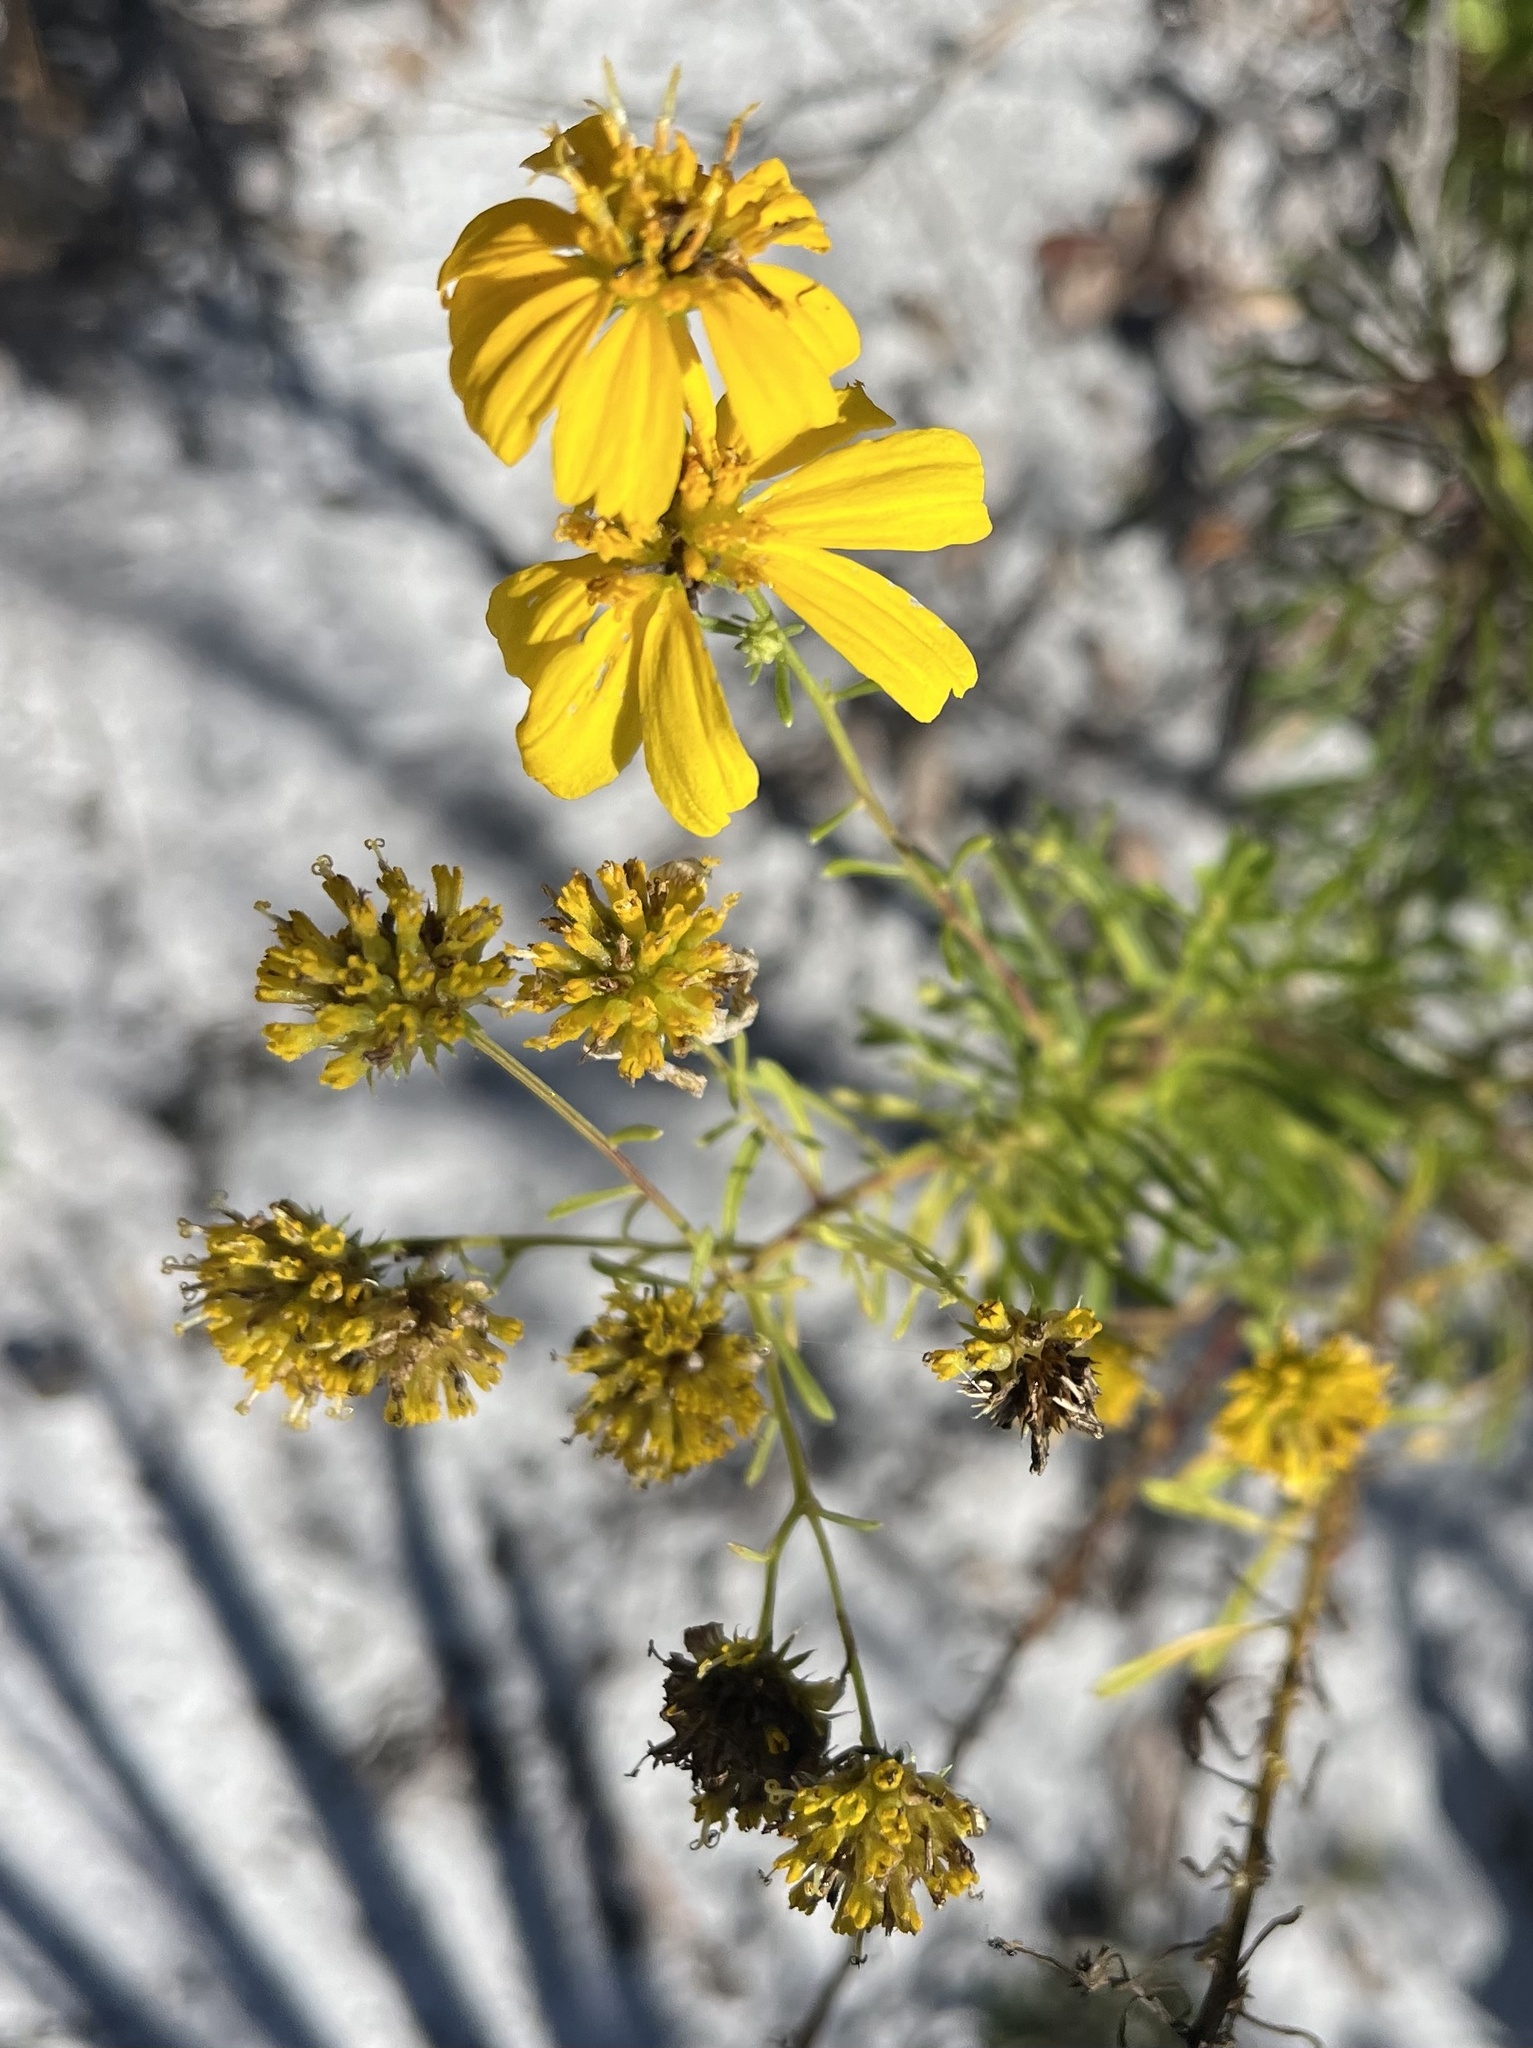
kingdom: Plantae
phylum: Tracheophyta
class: Magnoliopsida
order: Asterales
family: Asteraceae
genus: Balduina
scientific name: Balduina angustifolia
